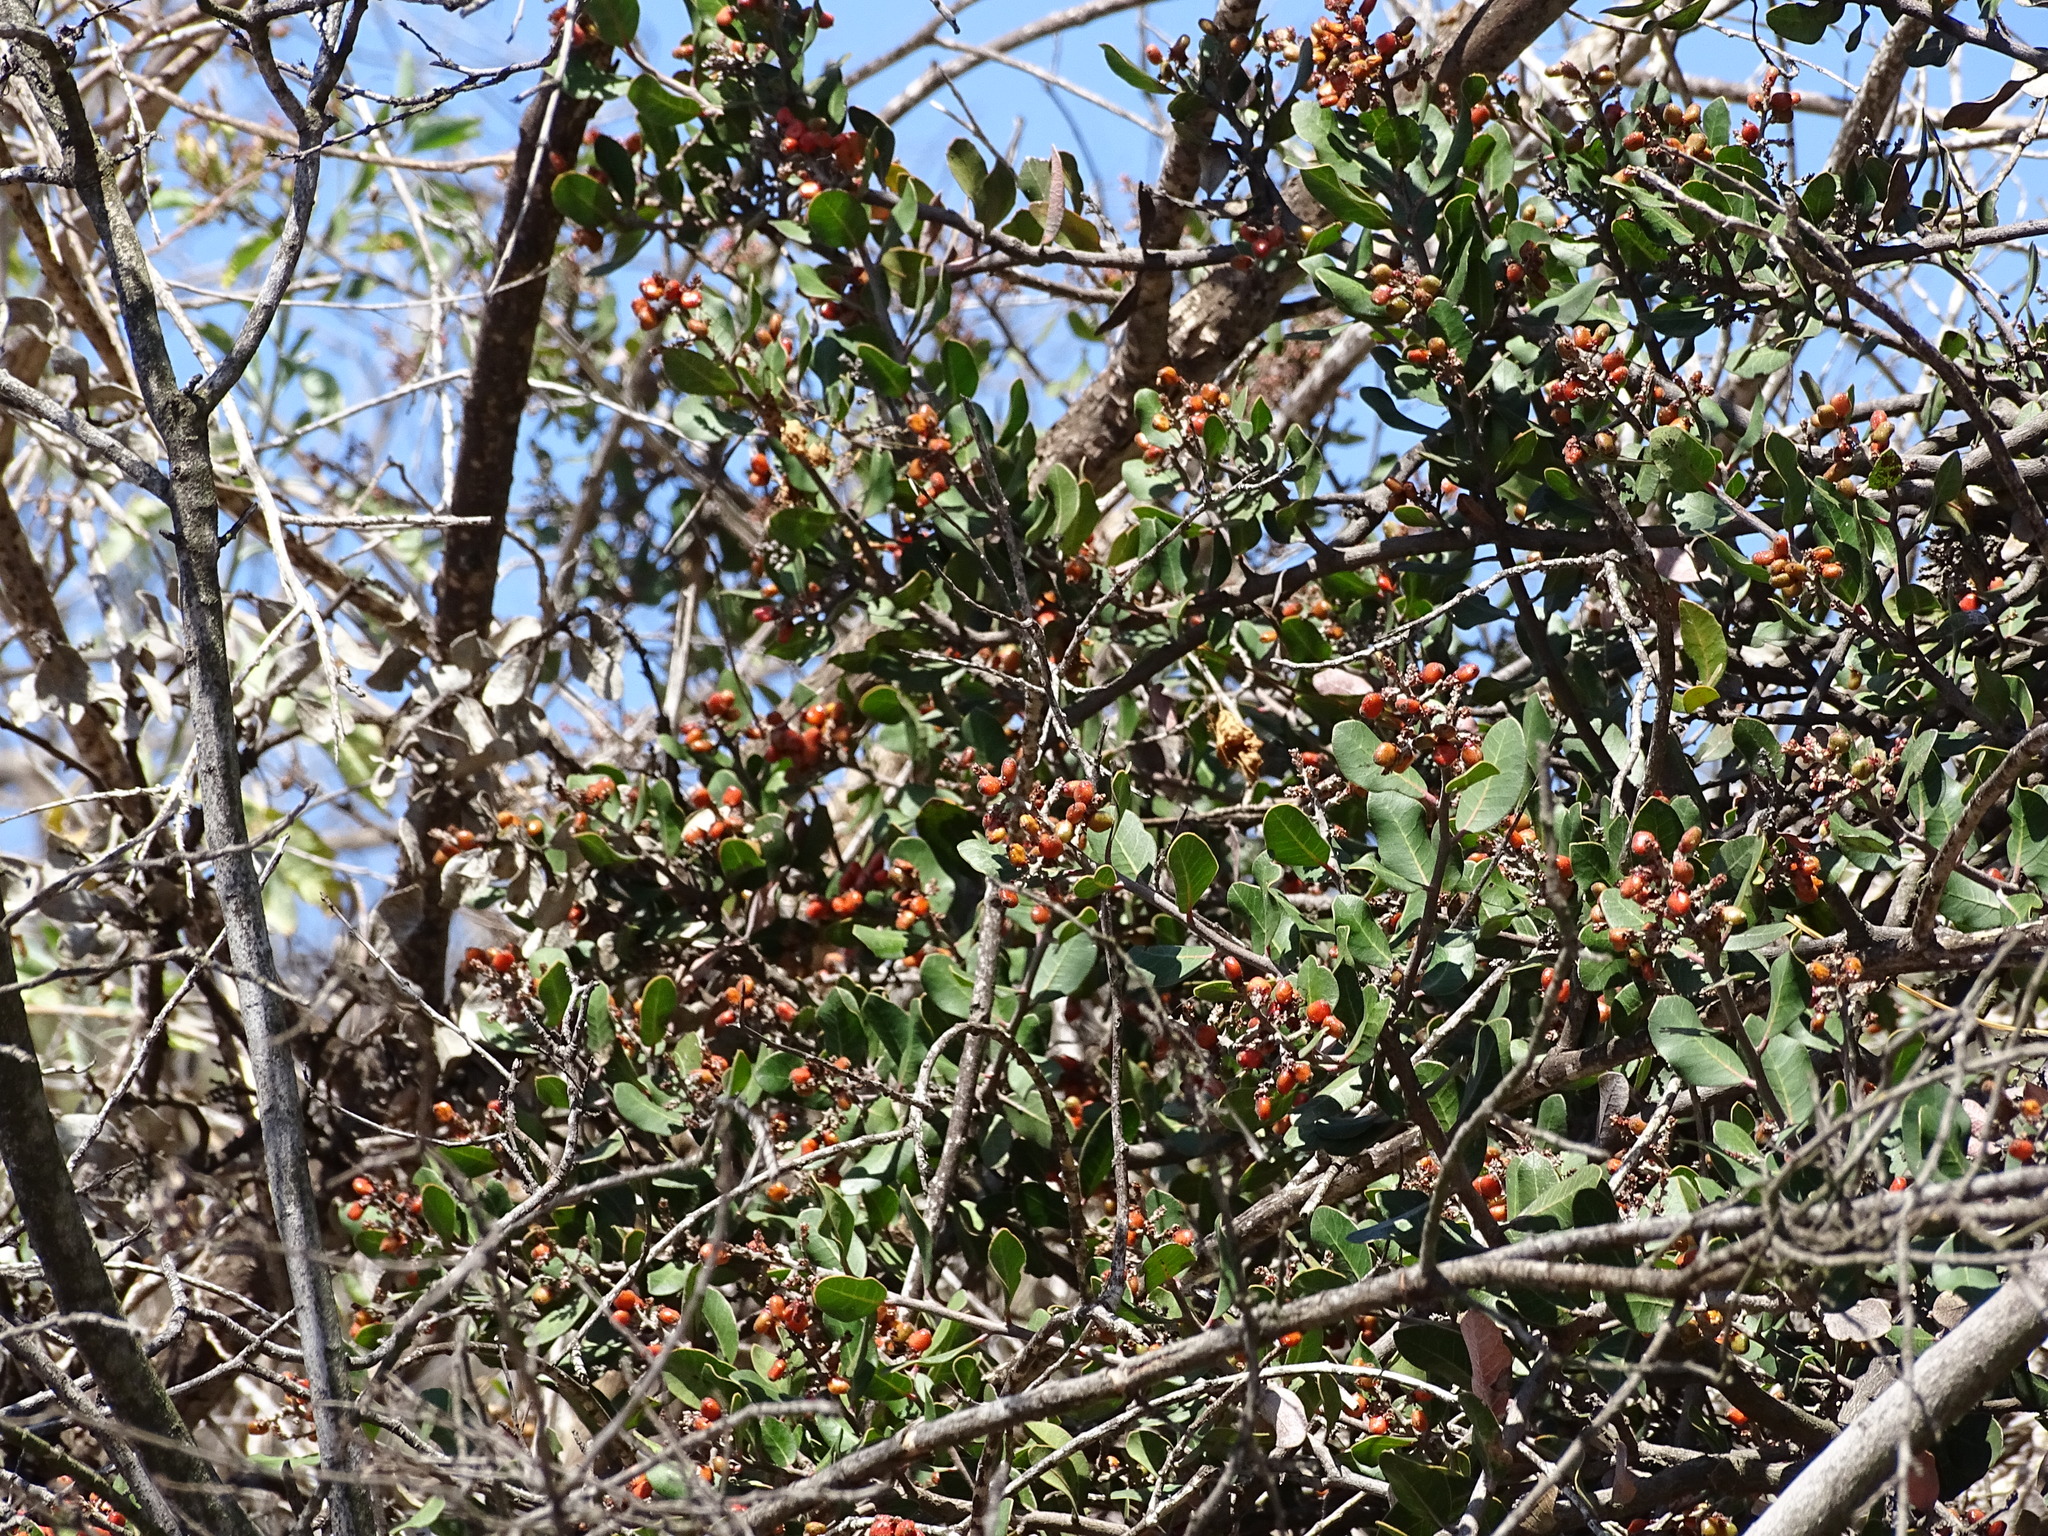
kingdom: Plantae
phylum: Tracheophyta
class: Magnoliopsida
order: Sapindales
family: Anacardiaceae
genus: Rhus
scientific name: Rhus integrifolia
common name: Lemonade sumac
